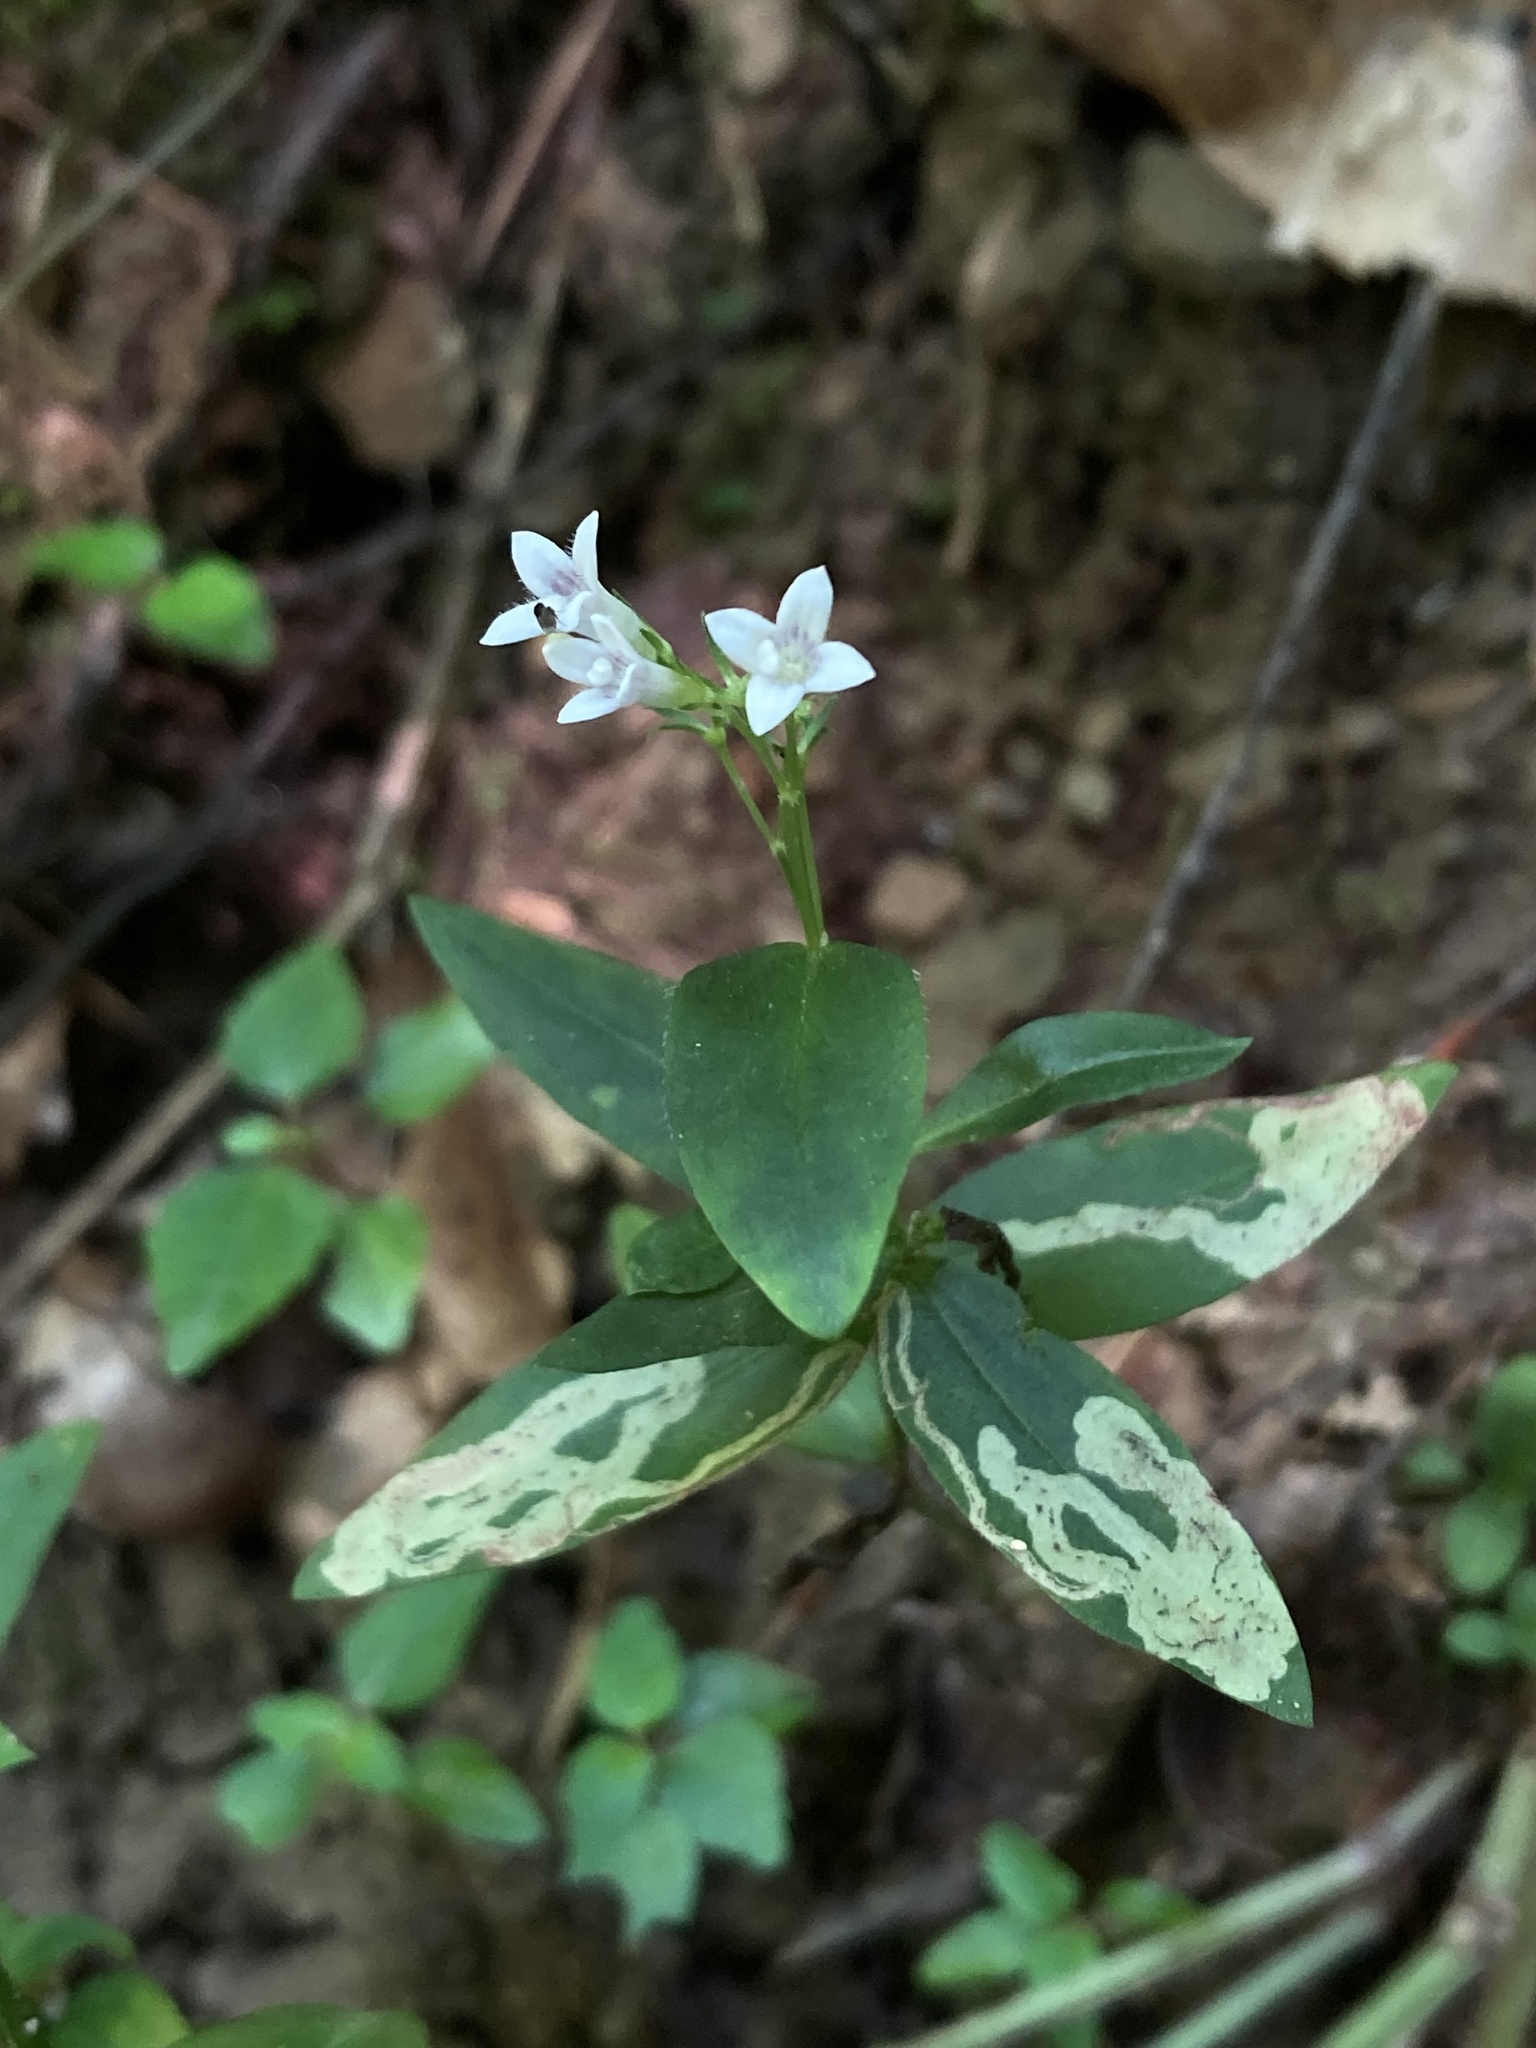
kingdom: Plantae
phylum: Tracheophyta
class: Magnoliopsida
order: Gentianales
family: Rubiaceae
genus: Houstonia
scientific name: Houstonia purpurea
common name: Summer bluet
